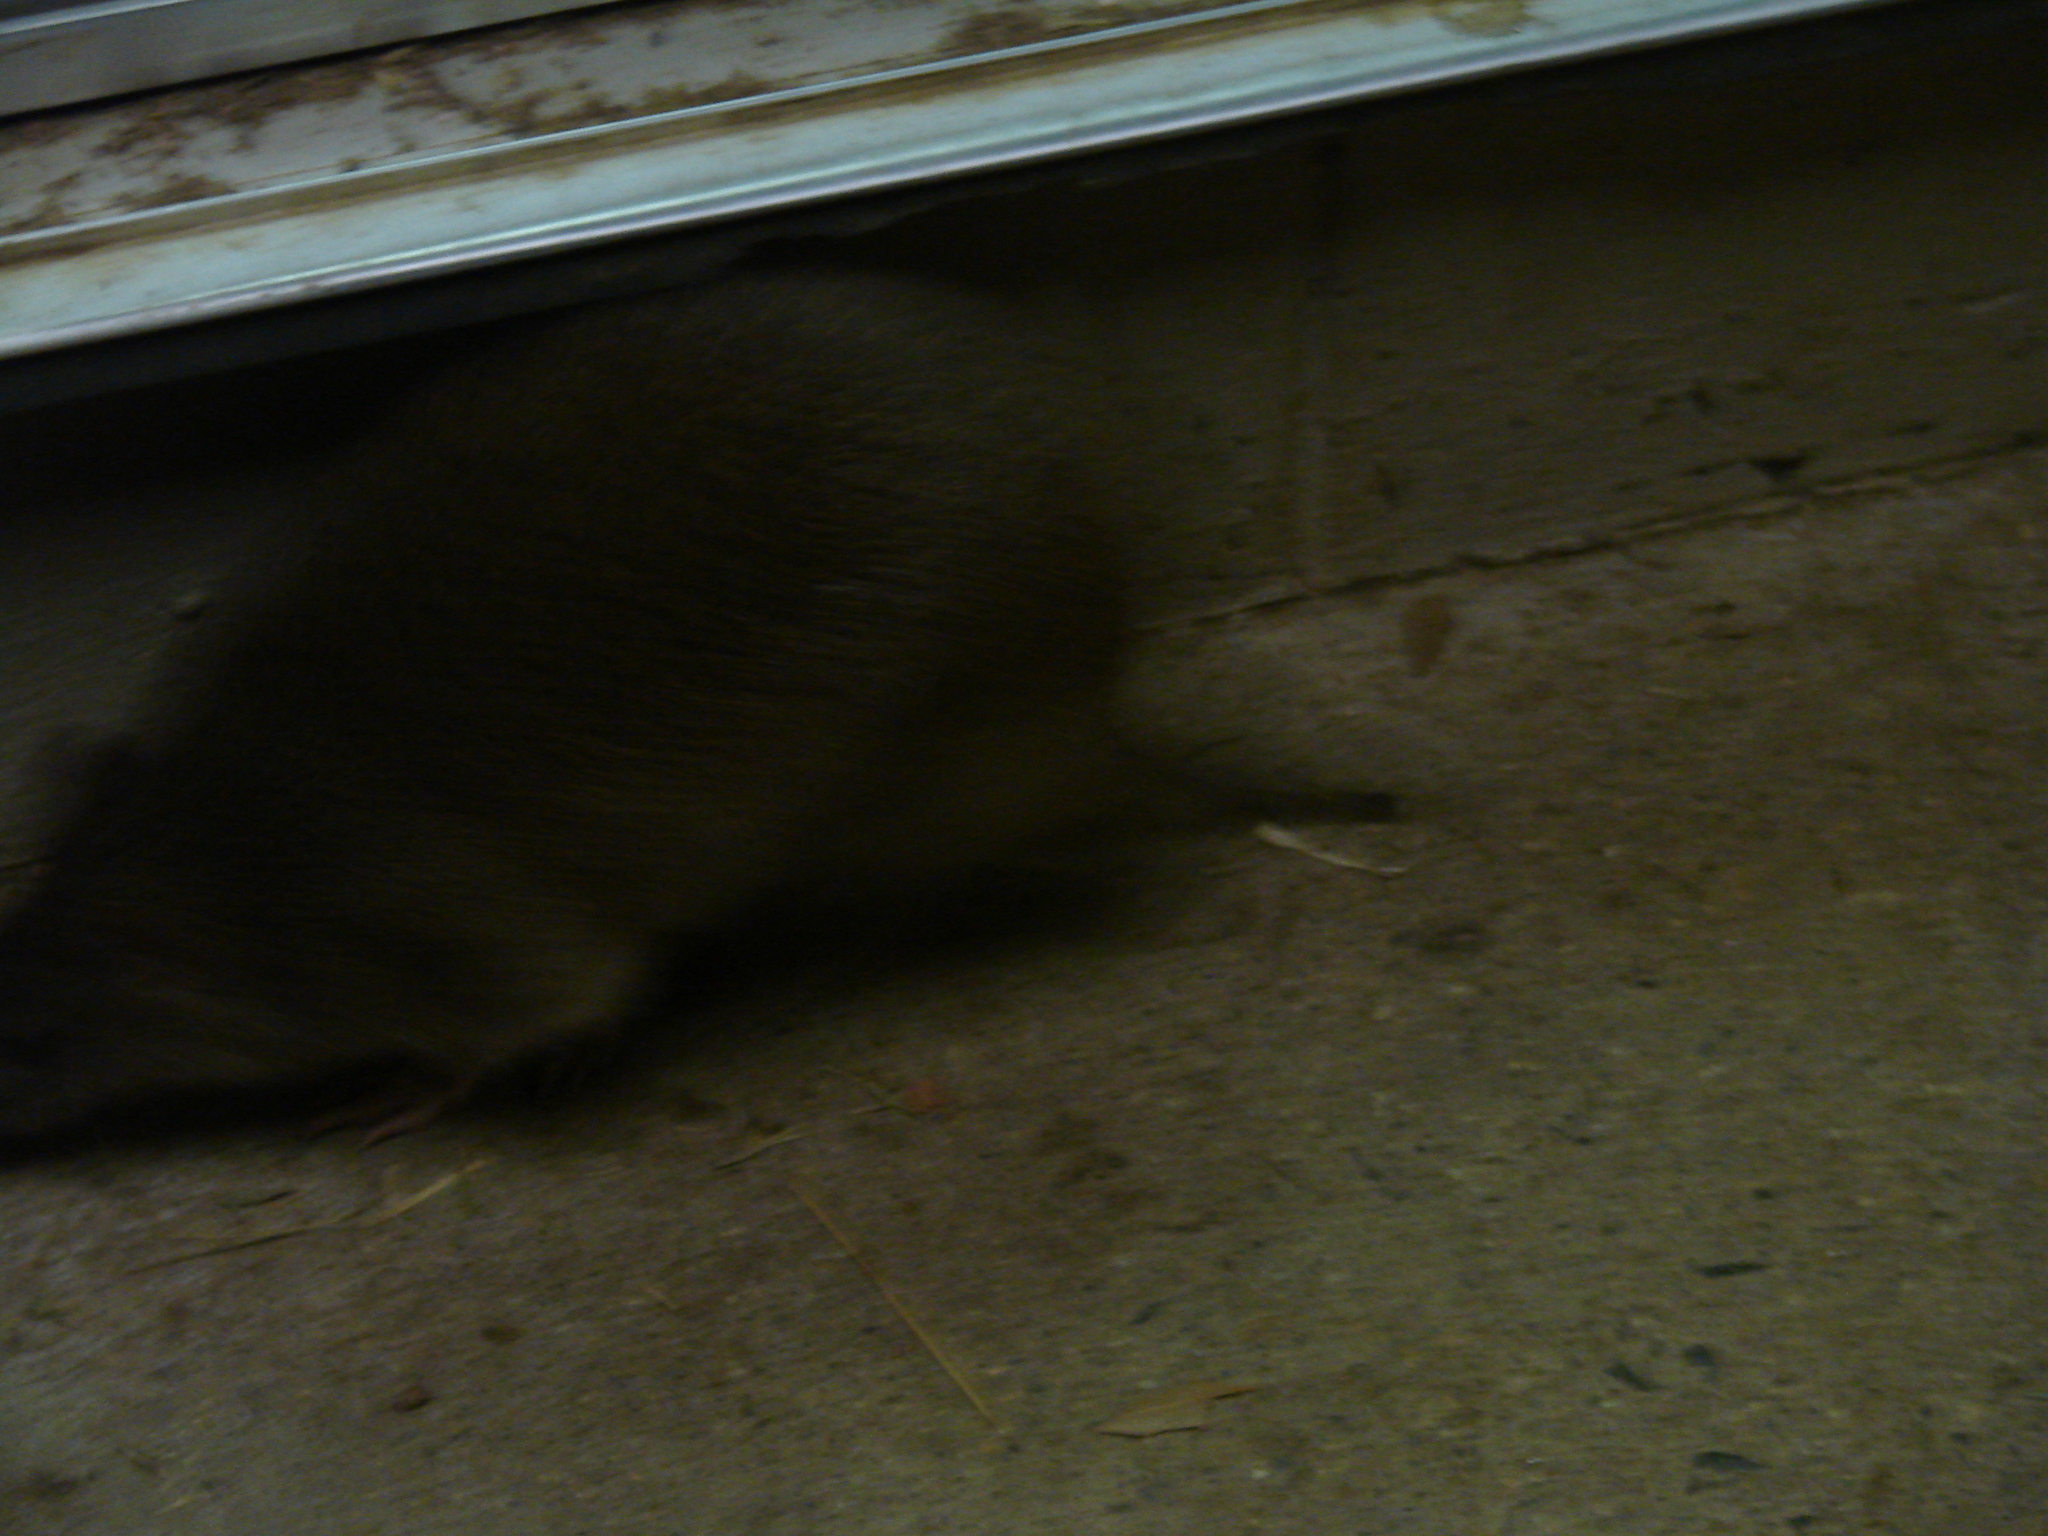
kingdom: Animalia
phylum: Chordata
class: Mammalia
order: Peramelemorphia
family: Peramelidae
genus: Isoodon
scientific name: Isoodon macrourus
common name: Northern brown bandicoot
